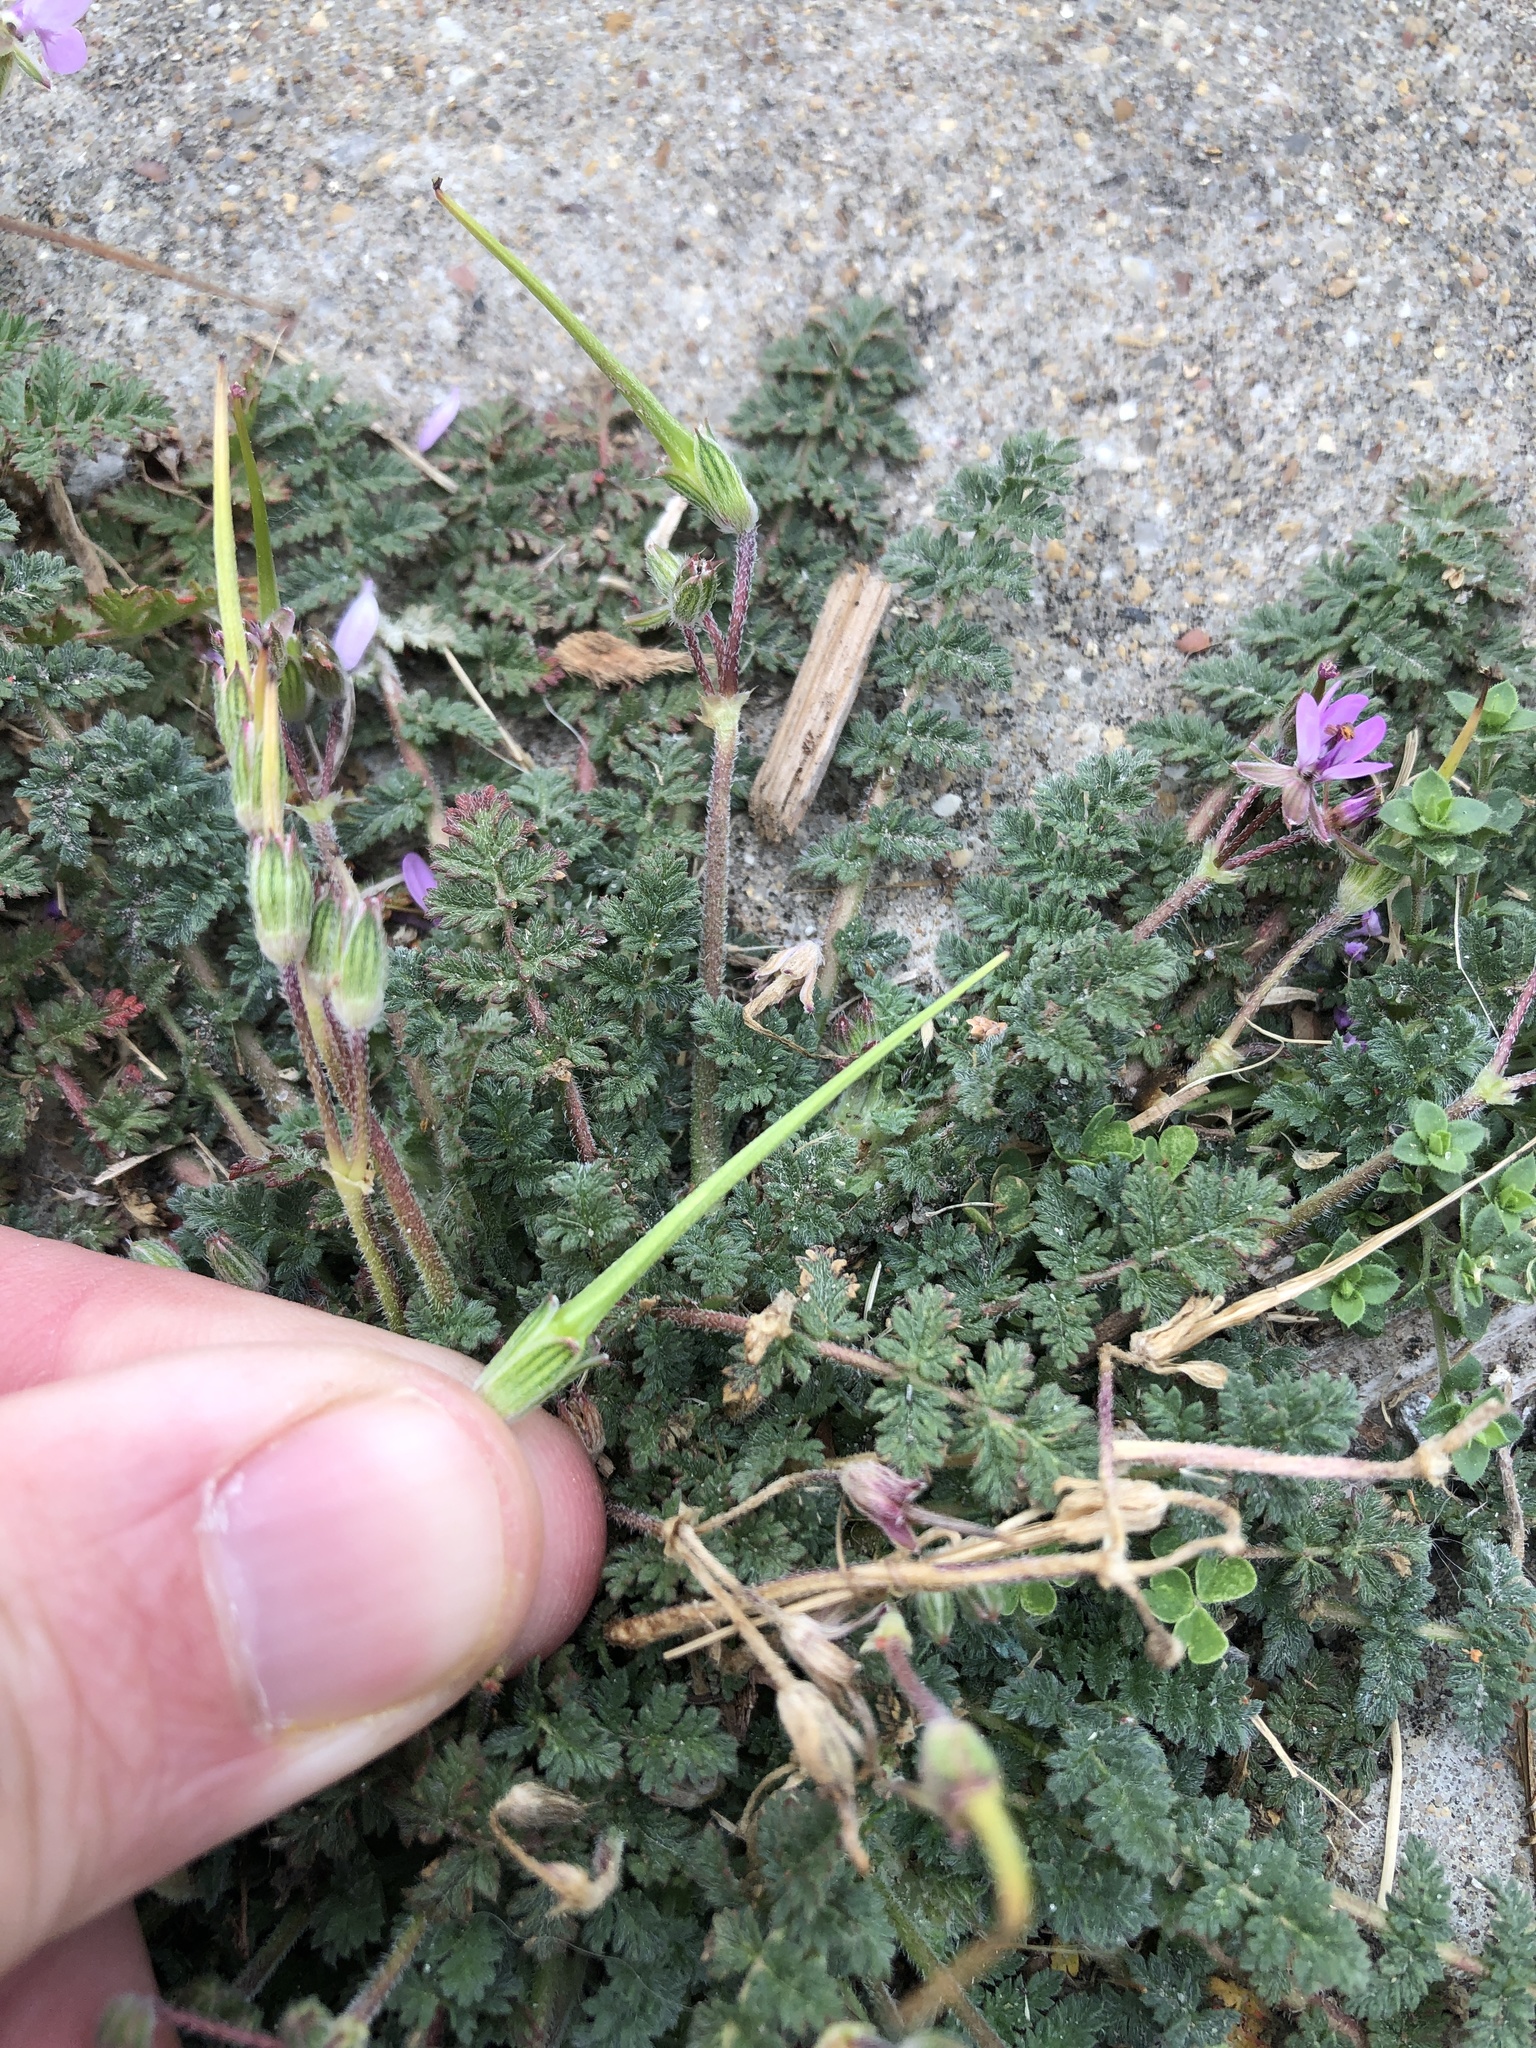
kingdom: Plantae
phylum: Tracheophyta
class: Magnoliopsida
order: Geraniales
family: Geraniaceae
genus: Erodium
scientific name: Erodium cicutarium
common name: Common stork's-bill
